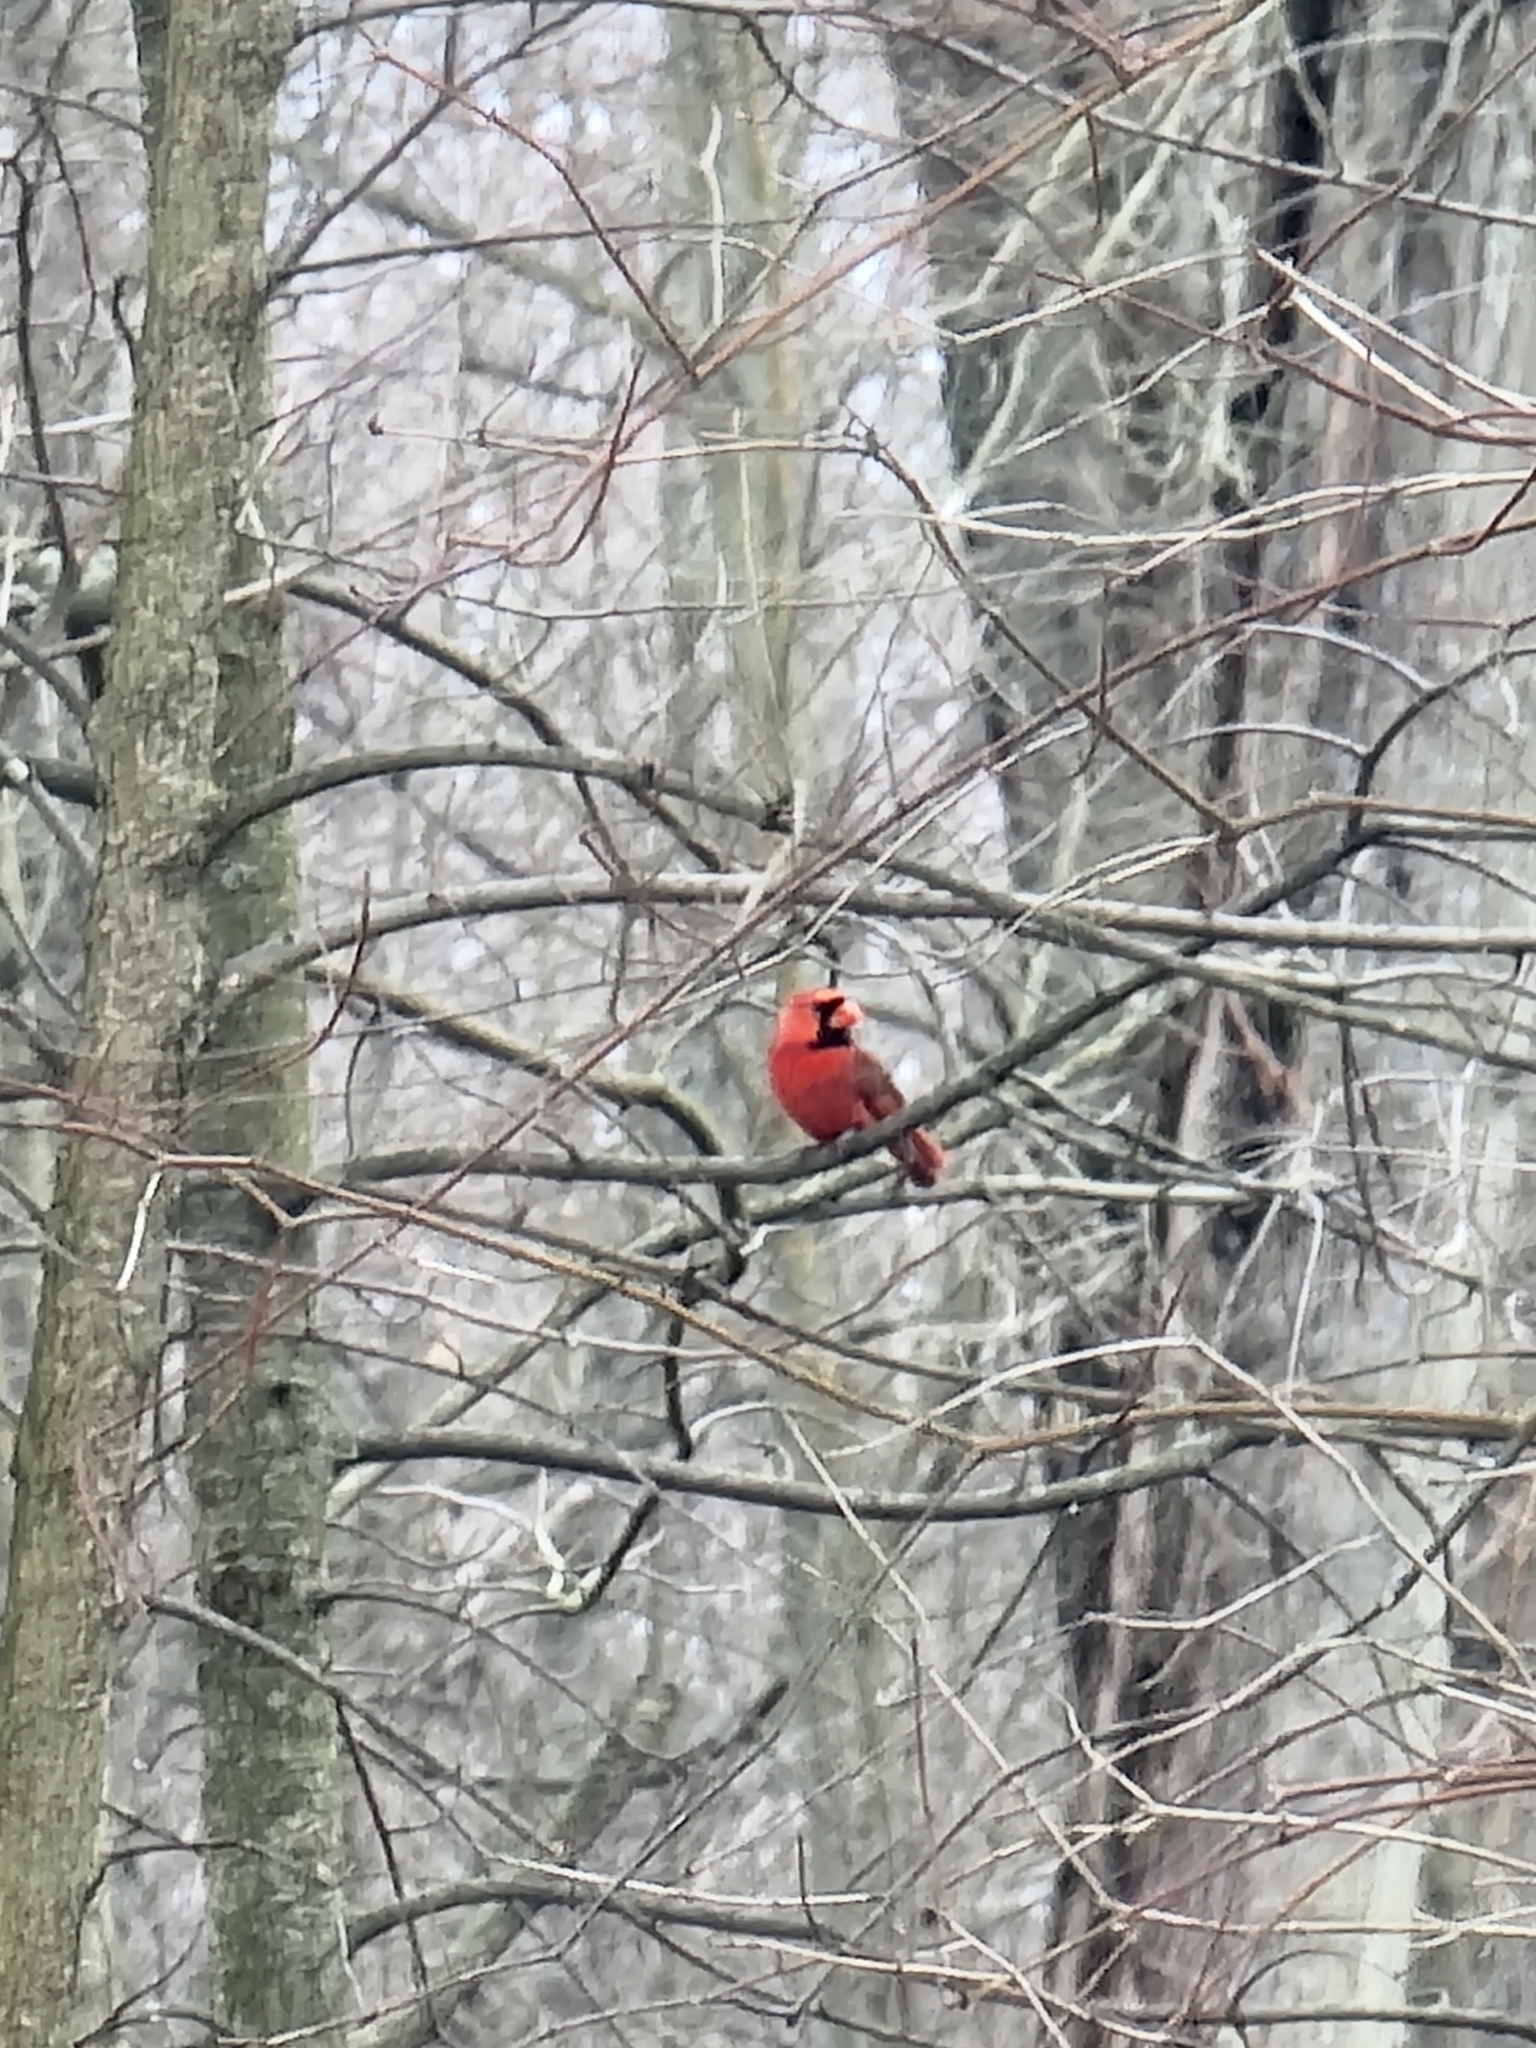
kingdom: Animalia
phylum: Chordata
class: Aves
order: Passeriformes
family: Cardinalidae
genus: Cardinalis
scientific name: Cardinalis cardinalis
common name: Northern cardinal
